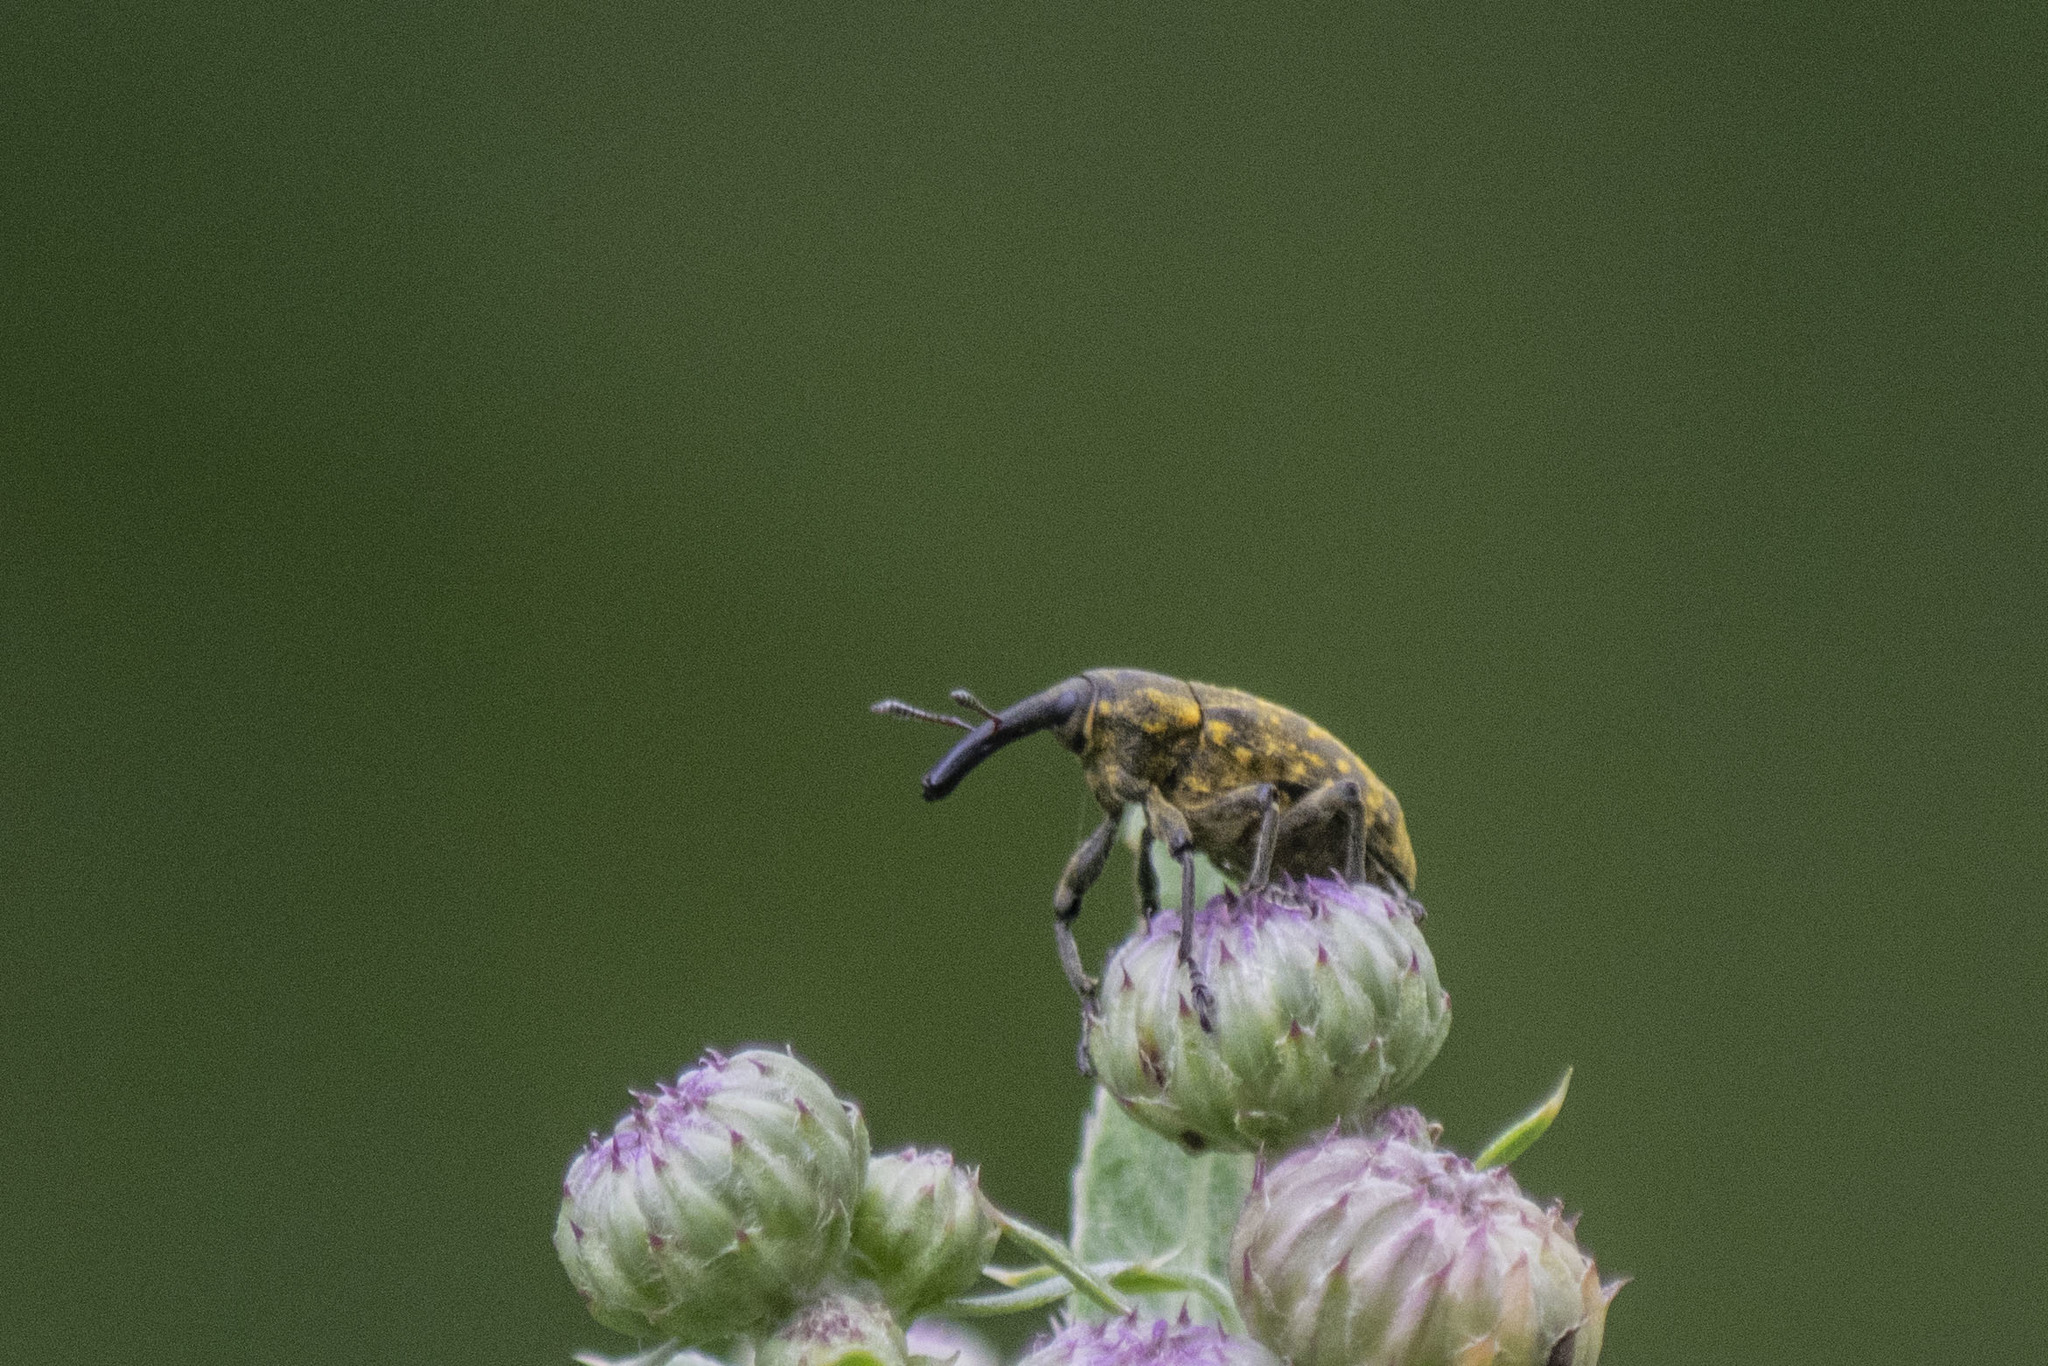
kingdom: Animalia
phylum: Arthropoda
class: Insecta
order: Coleoptera
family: Curculionidae
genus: Larinus
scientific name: Larinus sturnus
